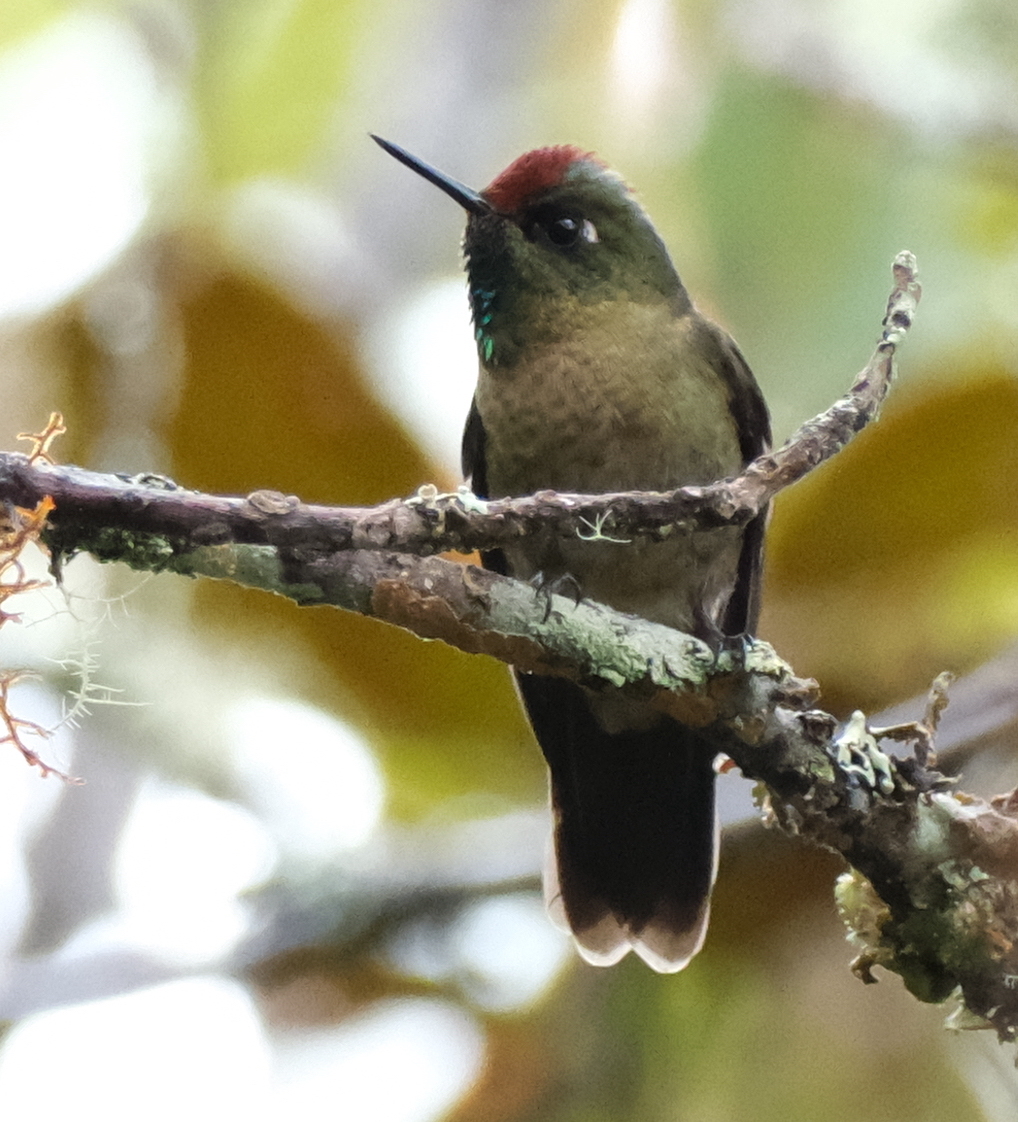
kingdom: Animalia
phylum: Chordata
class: Aves
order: Apodiformes
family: Trochilidae
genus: Chalcostigma
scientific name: Chalcostigma ruficeps
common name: Rufous-capped thornbill
